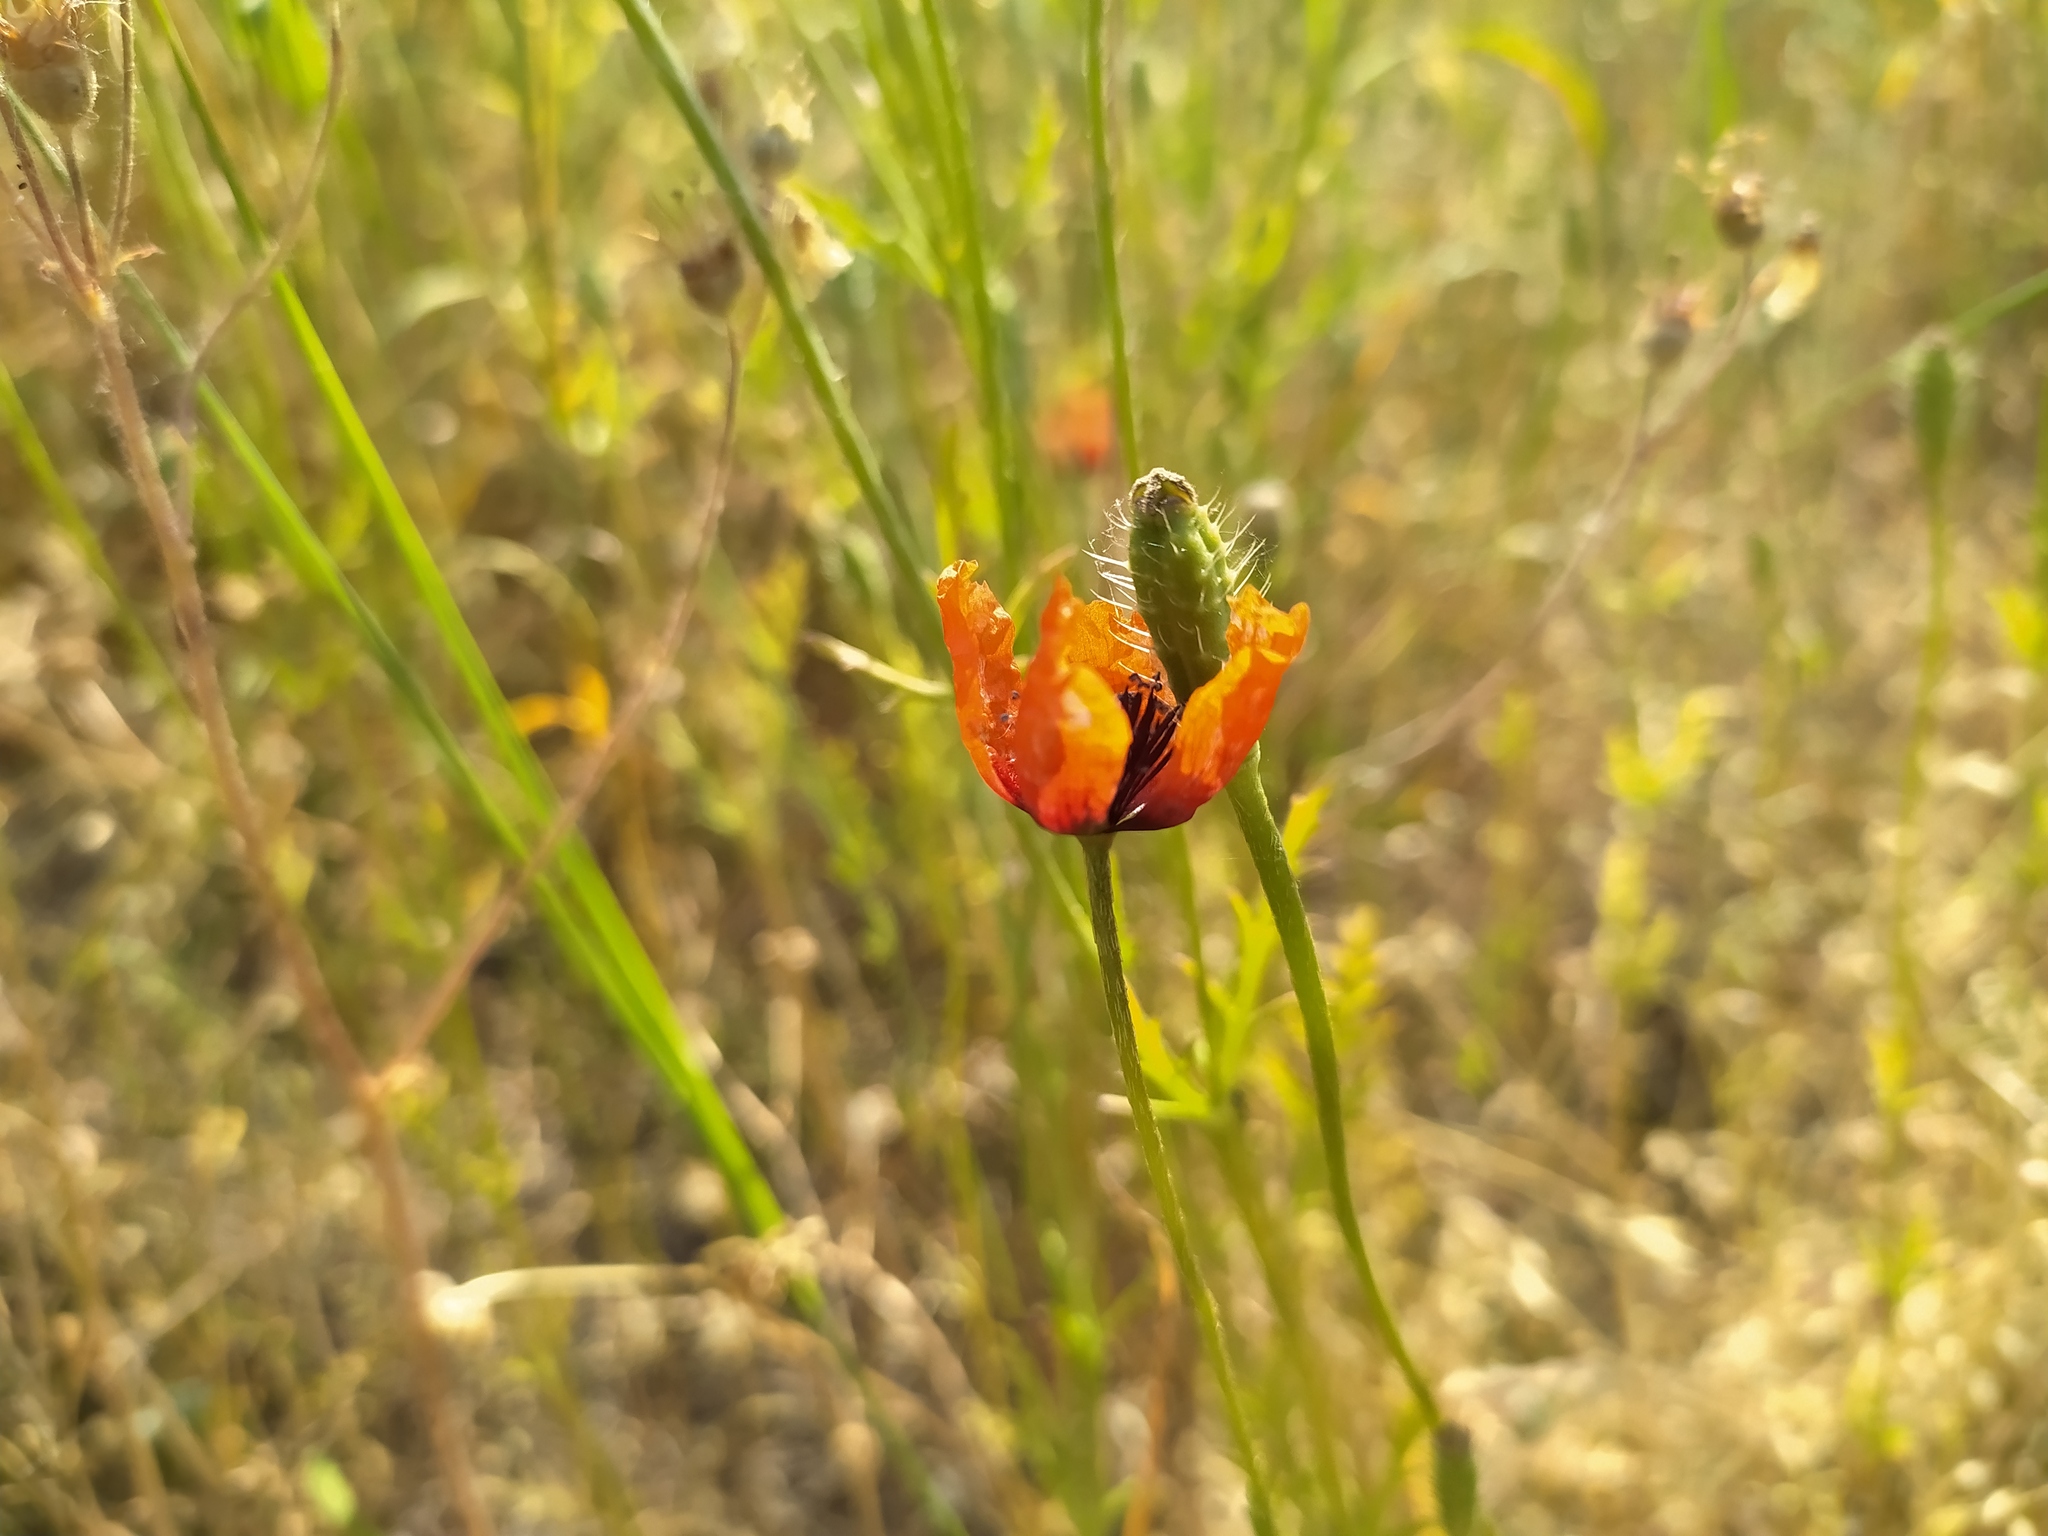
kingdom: Plantae
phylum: Tracheophyta
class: Magnoliopsida
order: Ranunculales
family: Papaveraceae
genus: Roemeria
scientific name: Roemeria argemone
